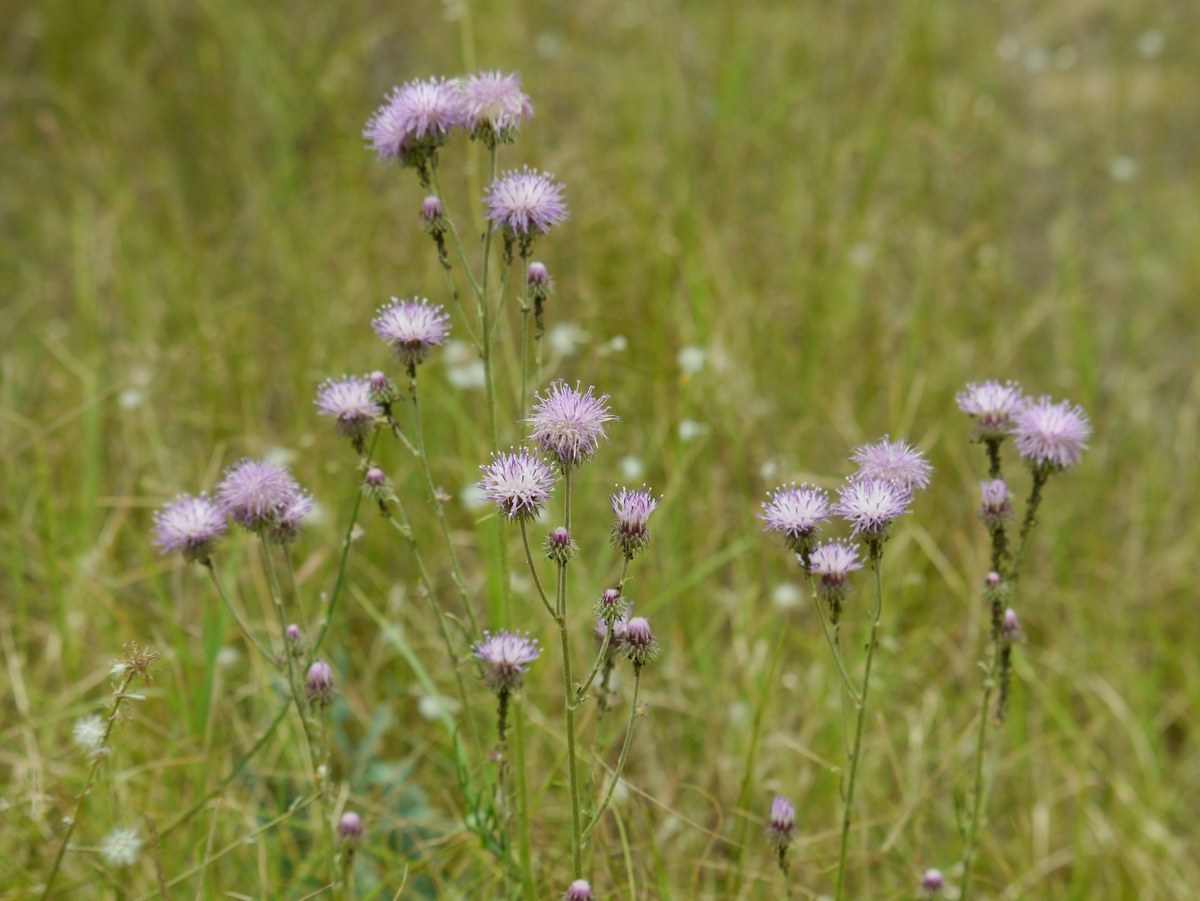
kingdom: Plantae
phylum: Tracheophyta
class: Magnoliopsida
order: Asterales
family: Asteraceae
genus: Jurinea
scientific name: Jurinea longifolia
